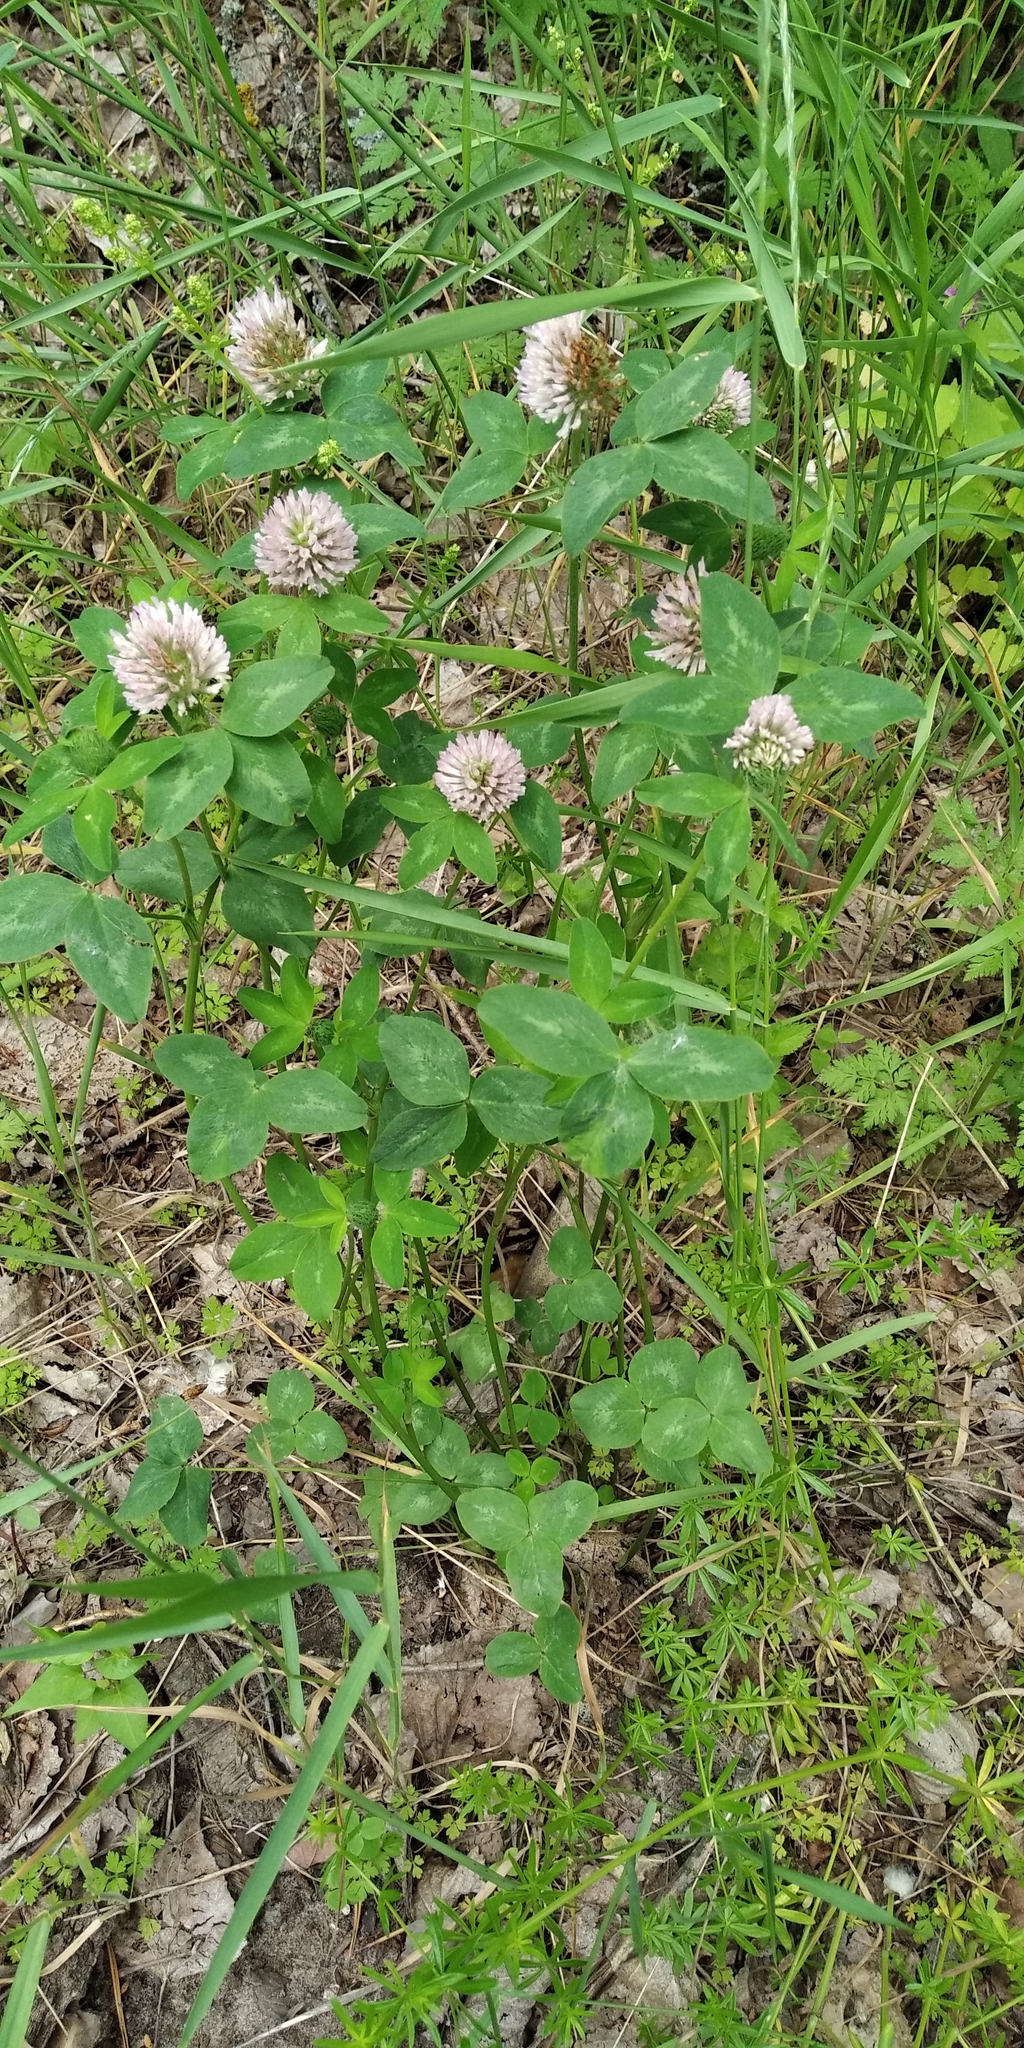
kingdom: Plantae
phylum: Tracheophyta
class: Magnoliopsida
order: Fabales
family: Fabaceae
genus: Trifolium
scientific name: Trifolium pratense
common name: Red clover
